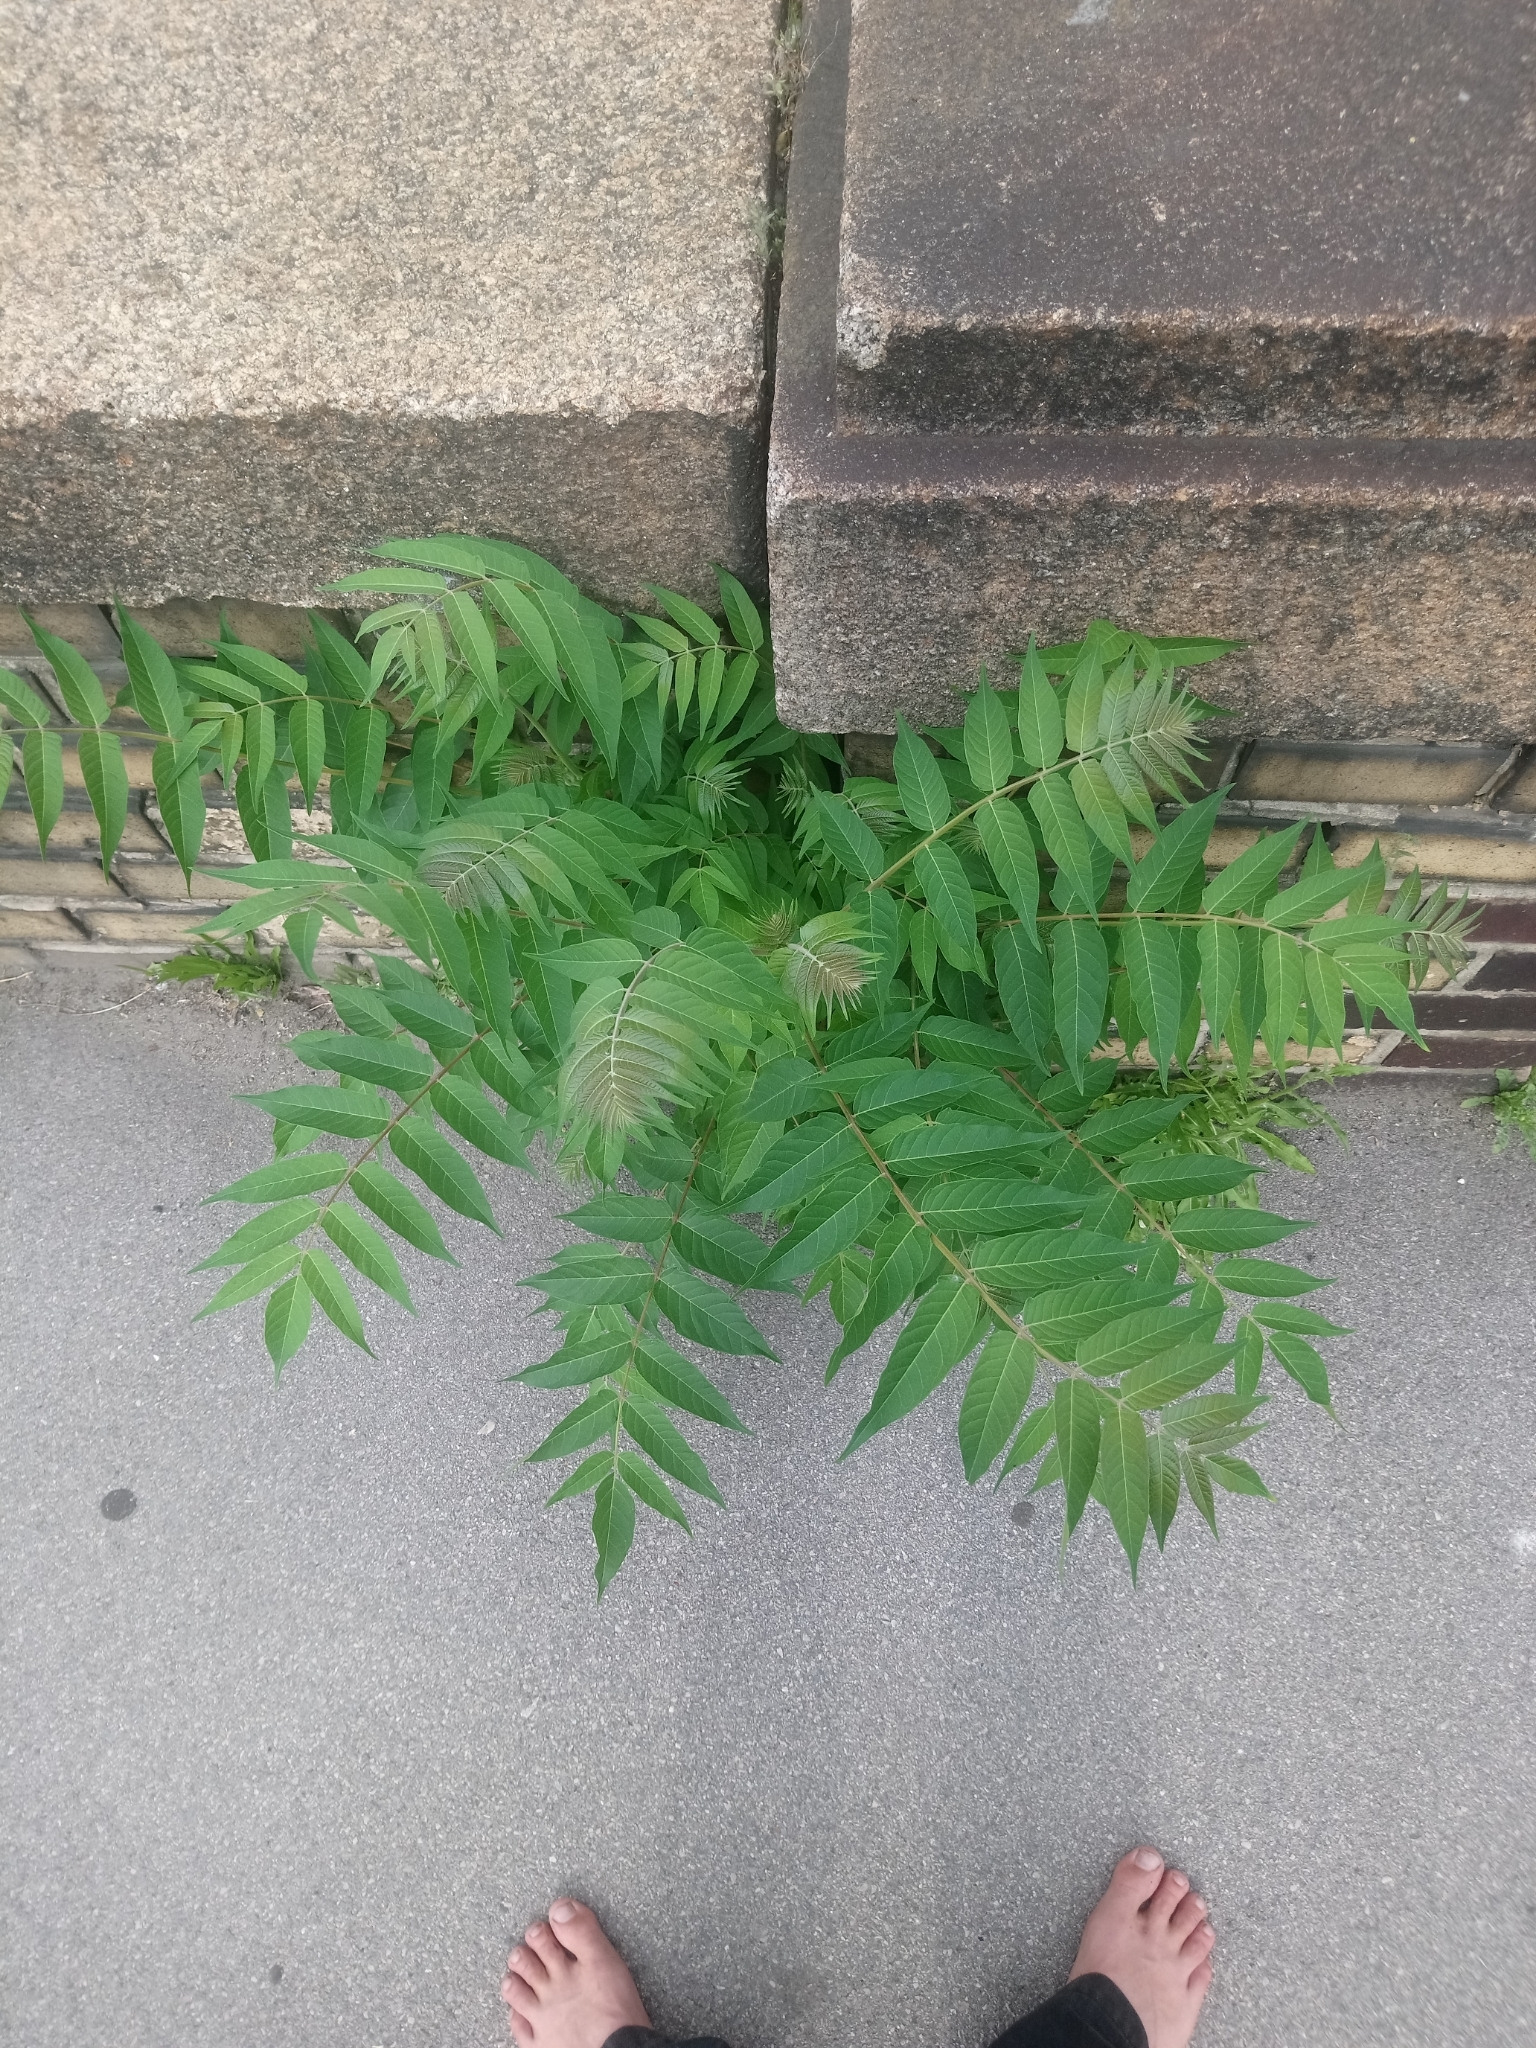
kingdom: Plantae
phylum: Tracheophyta
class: Magnoliopsida
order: Sapindales
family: Simaroubaceae
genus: Ailanthus
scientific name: Ailanthus altissima
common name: Tree-of-heaven
